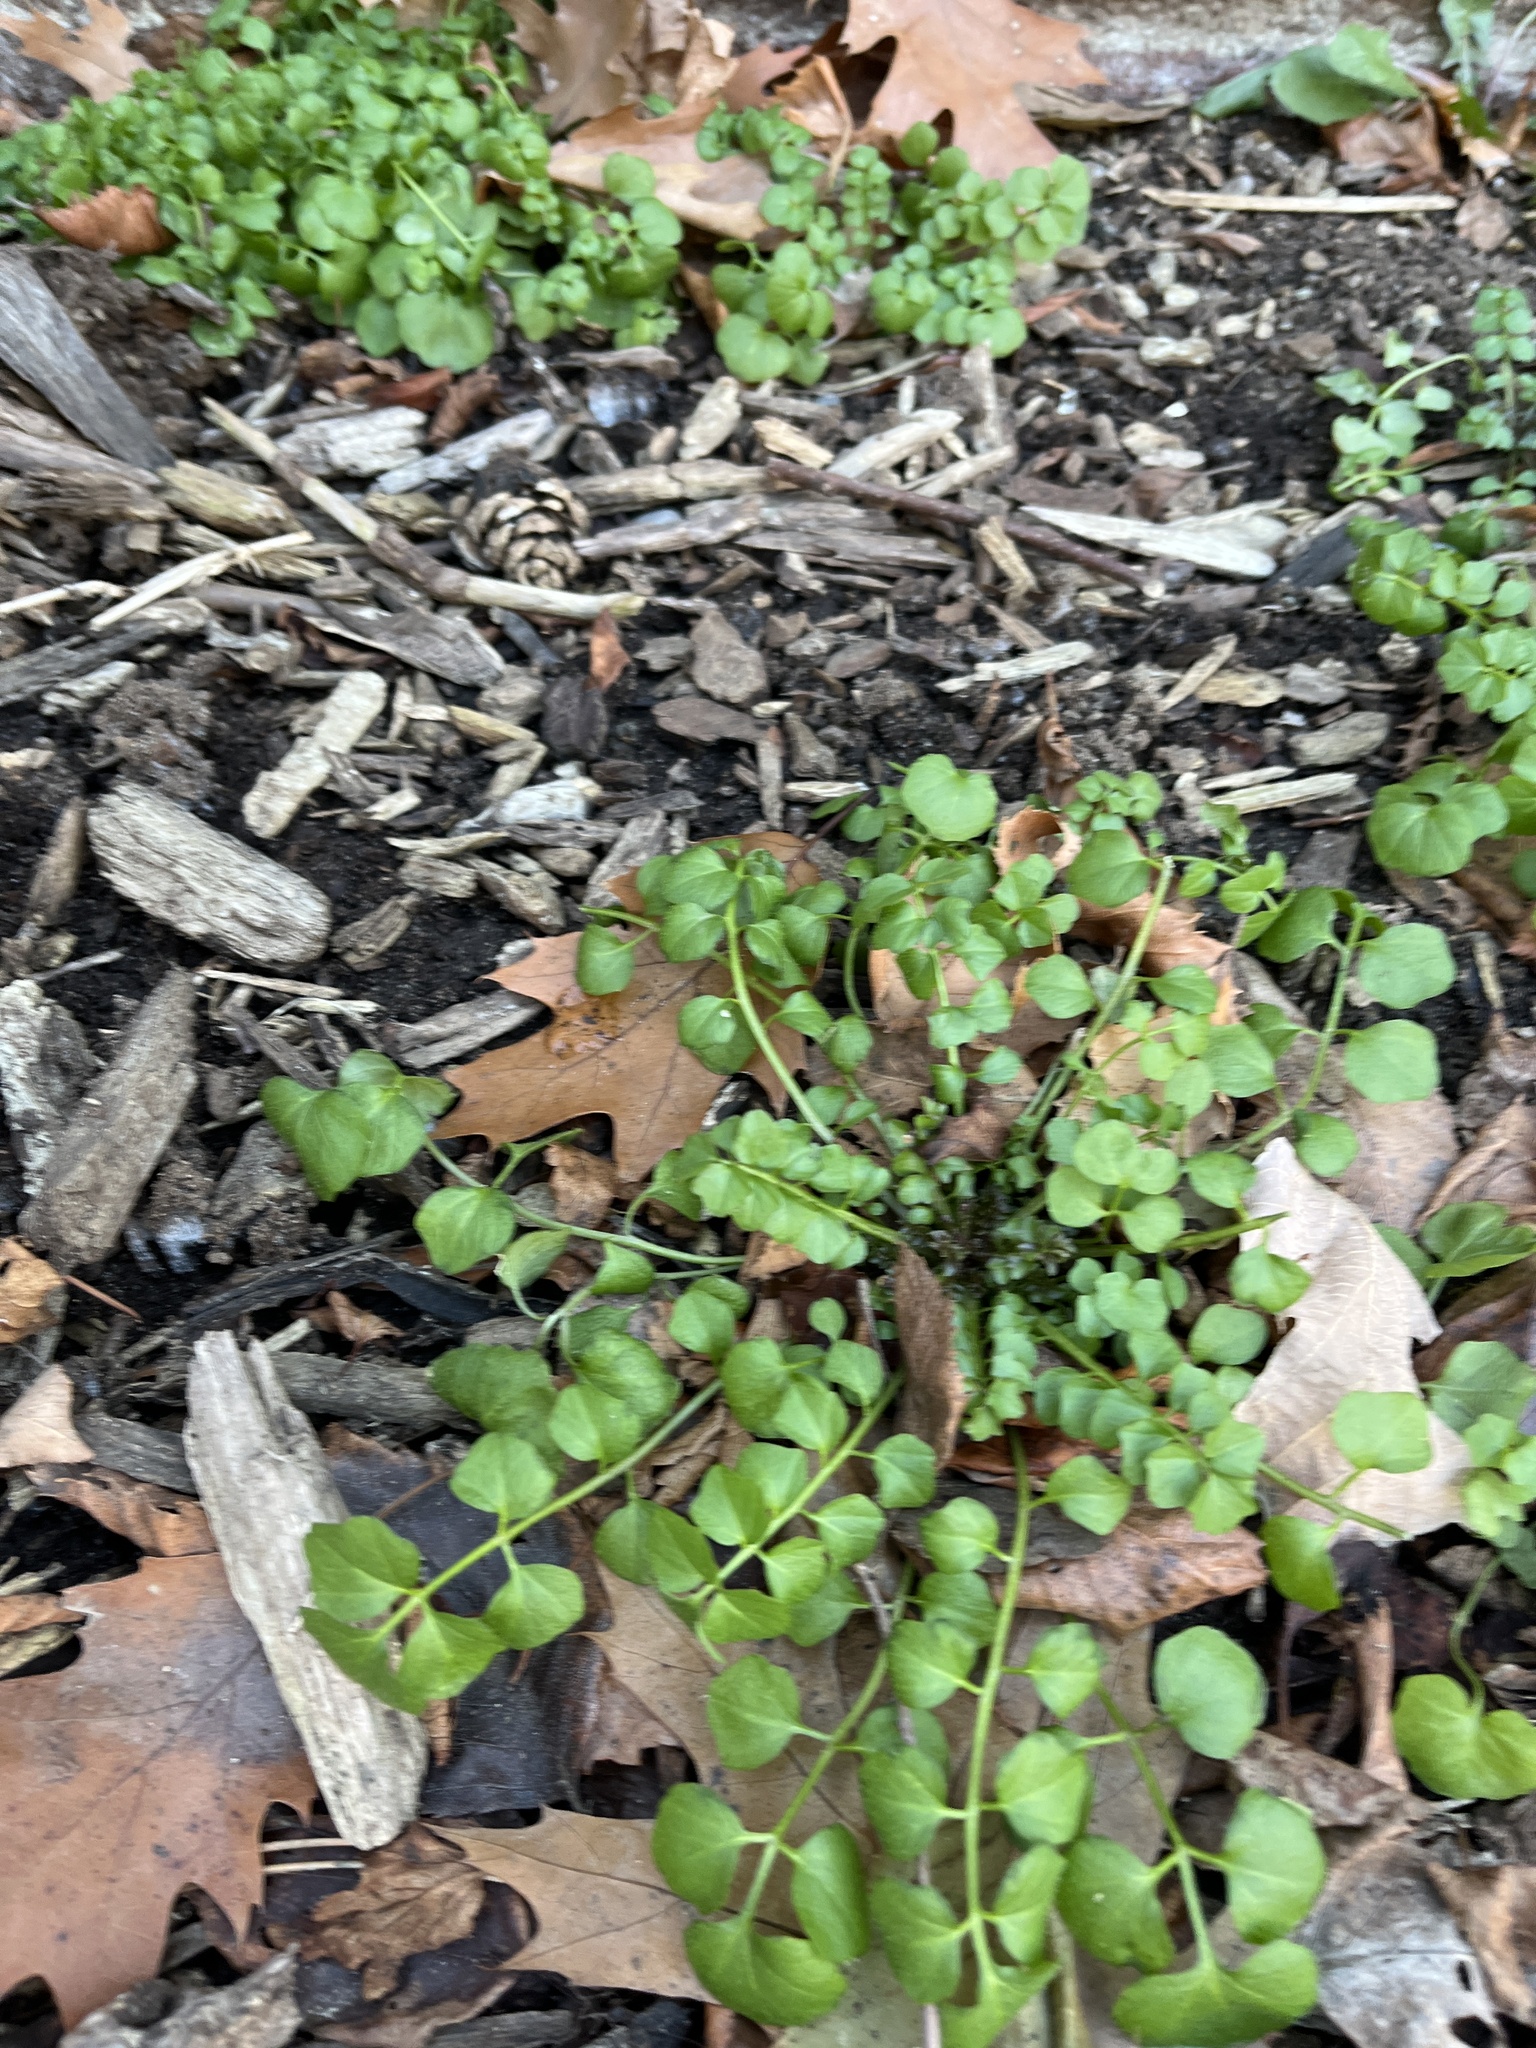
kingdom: Plantae
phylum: Tracheophyta
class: Magnoliopsida
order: Brassicales
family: Brassicaceae
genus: Cardamine
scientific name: Cardamine hirsuta
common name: Hairy bittercress
